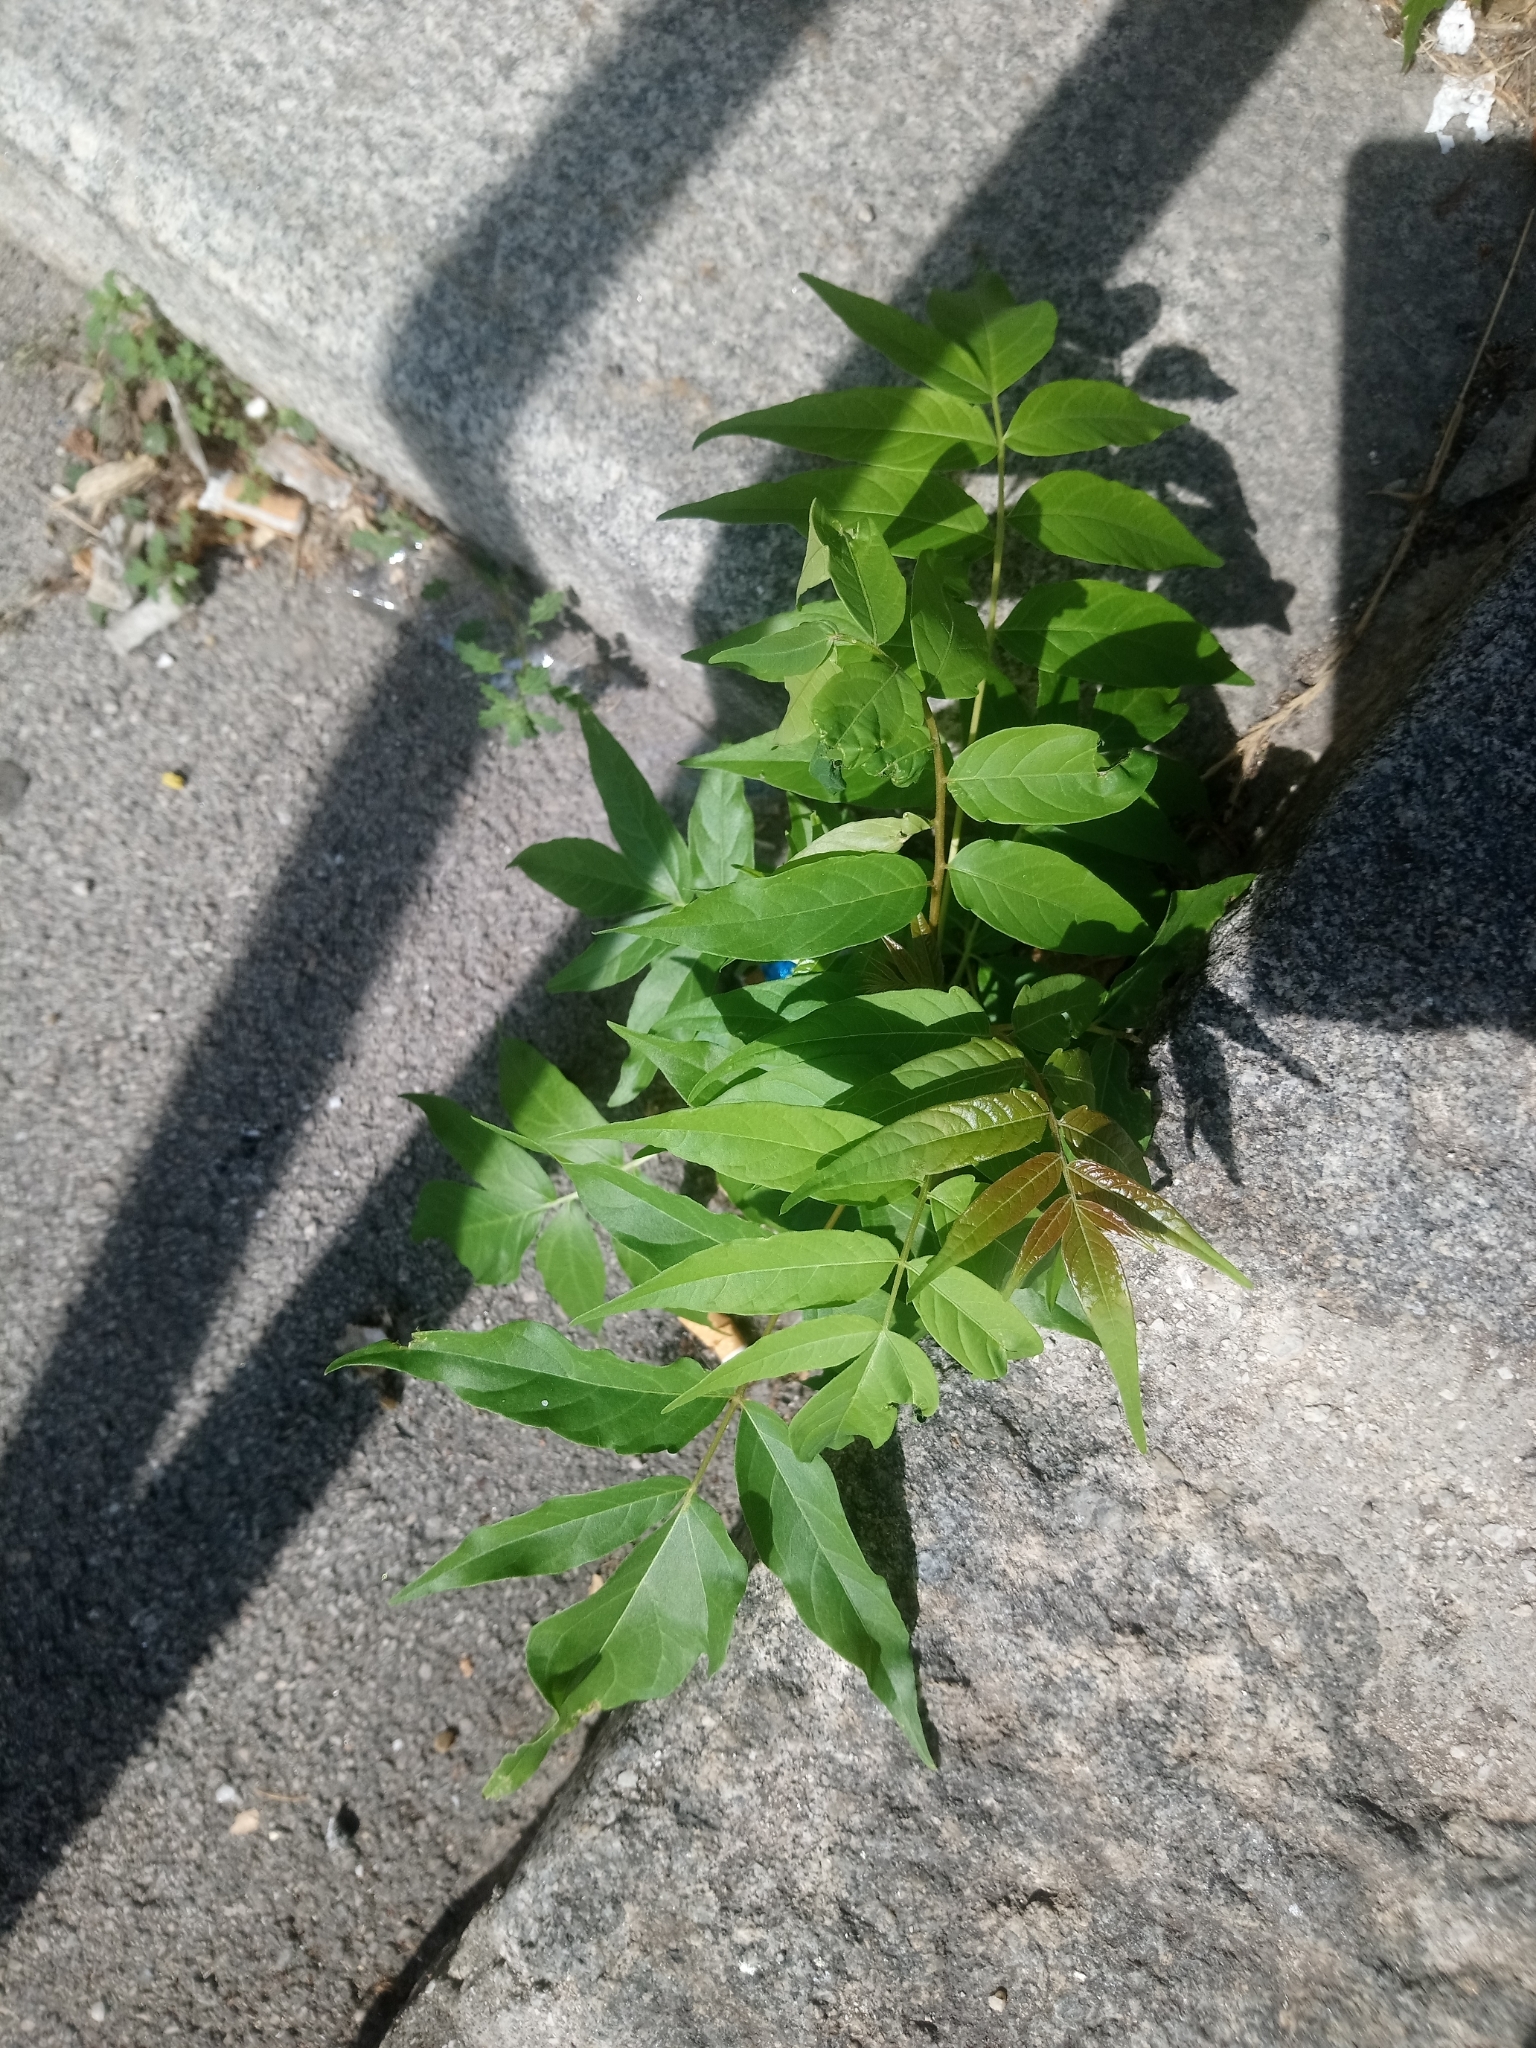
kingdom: Plantae
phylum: Tracheophyta
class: Magnoliopsida
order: Sapindales
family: Simaroubaceae
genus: Ailanthus
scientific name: Ailanthus altissima
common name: Tree-of-heaven
